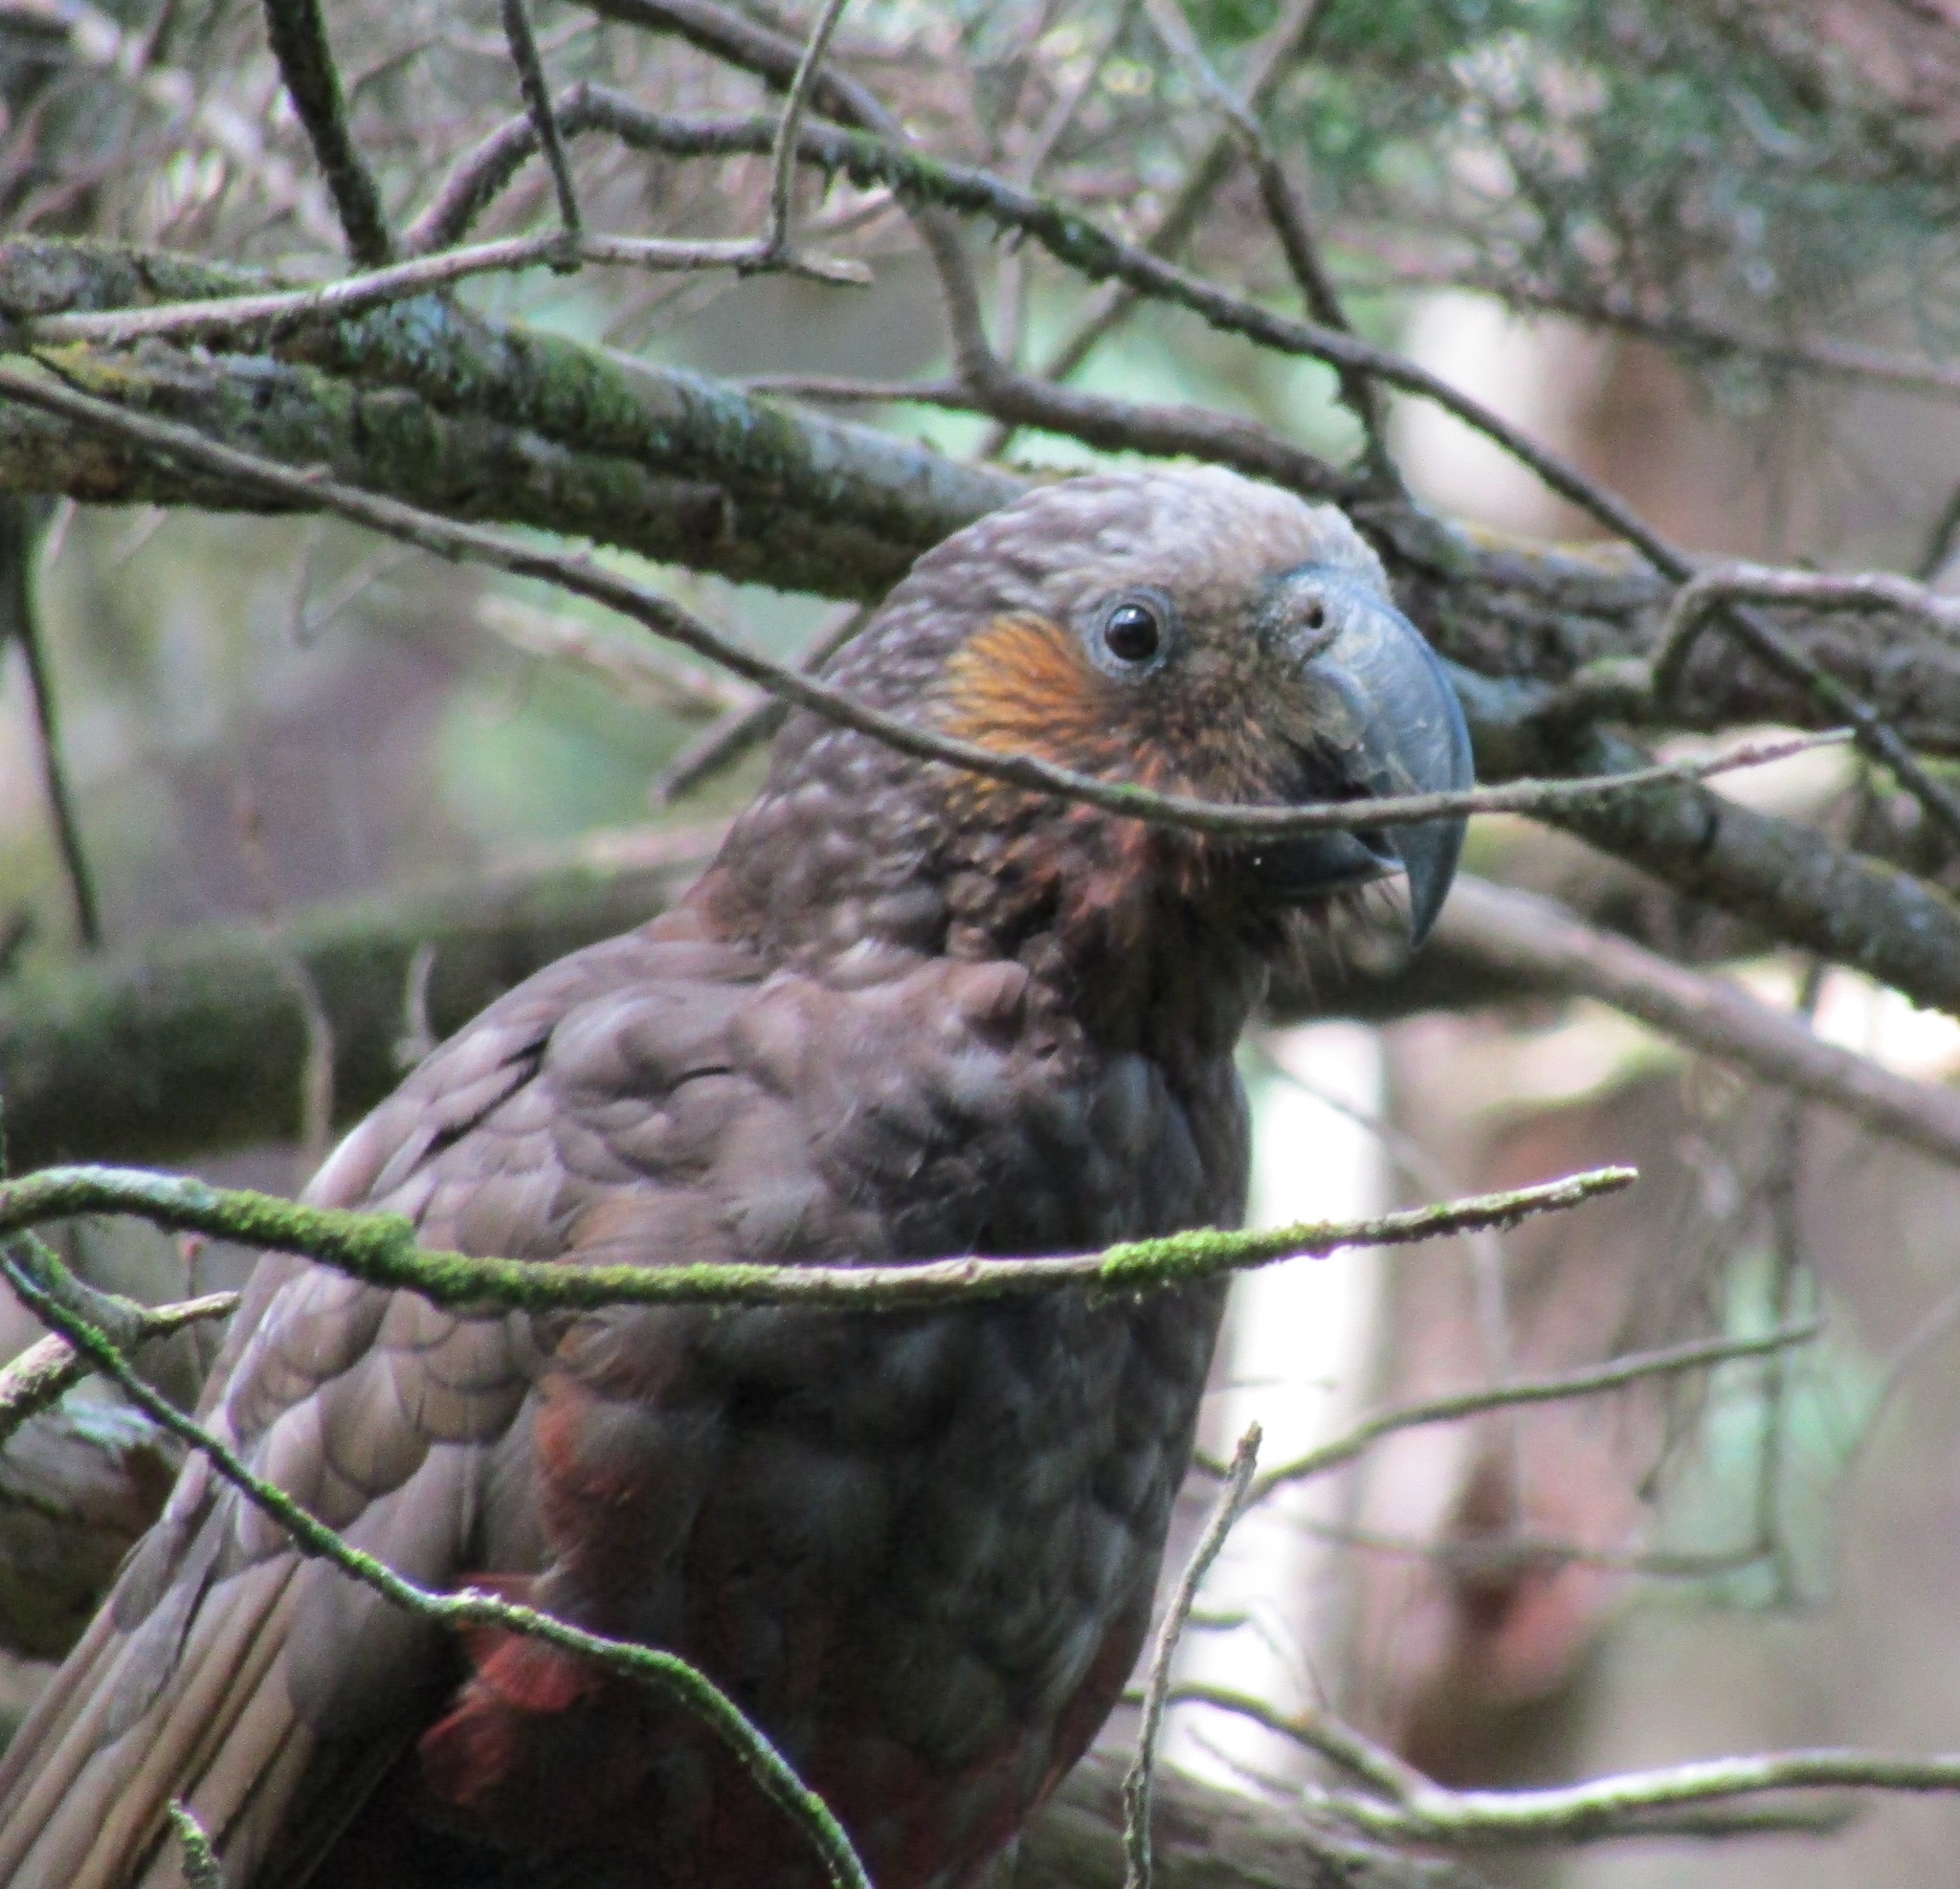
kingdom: Animalia
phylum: Chordata
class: Aves
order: Psittaciformes
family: Psittacidae
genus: Nestor
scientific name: Nestor meridionalis
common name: New zealand kaka
